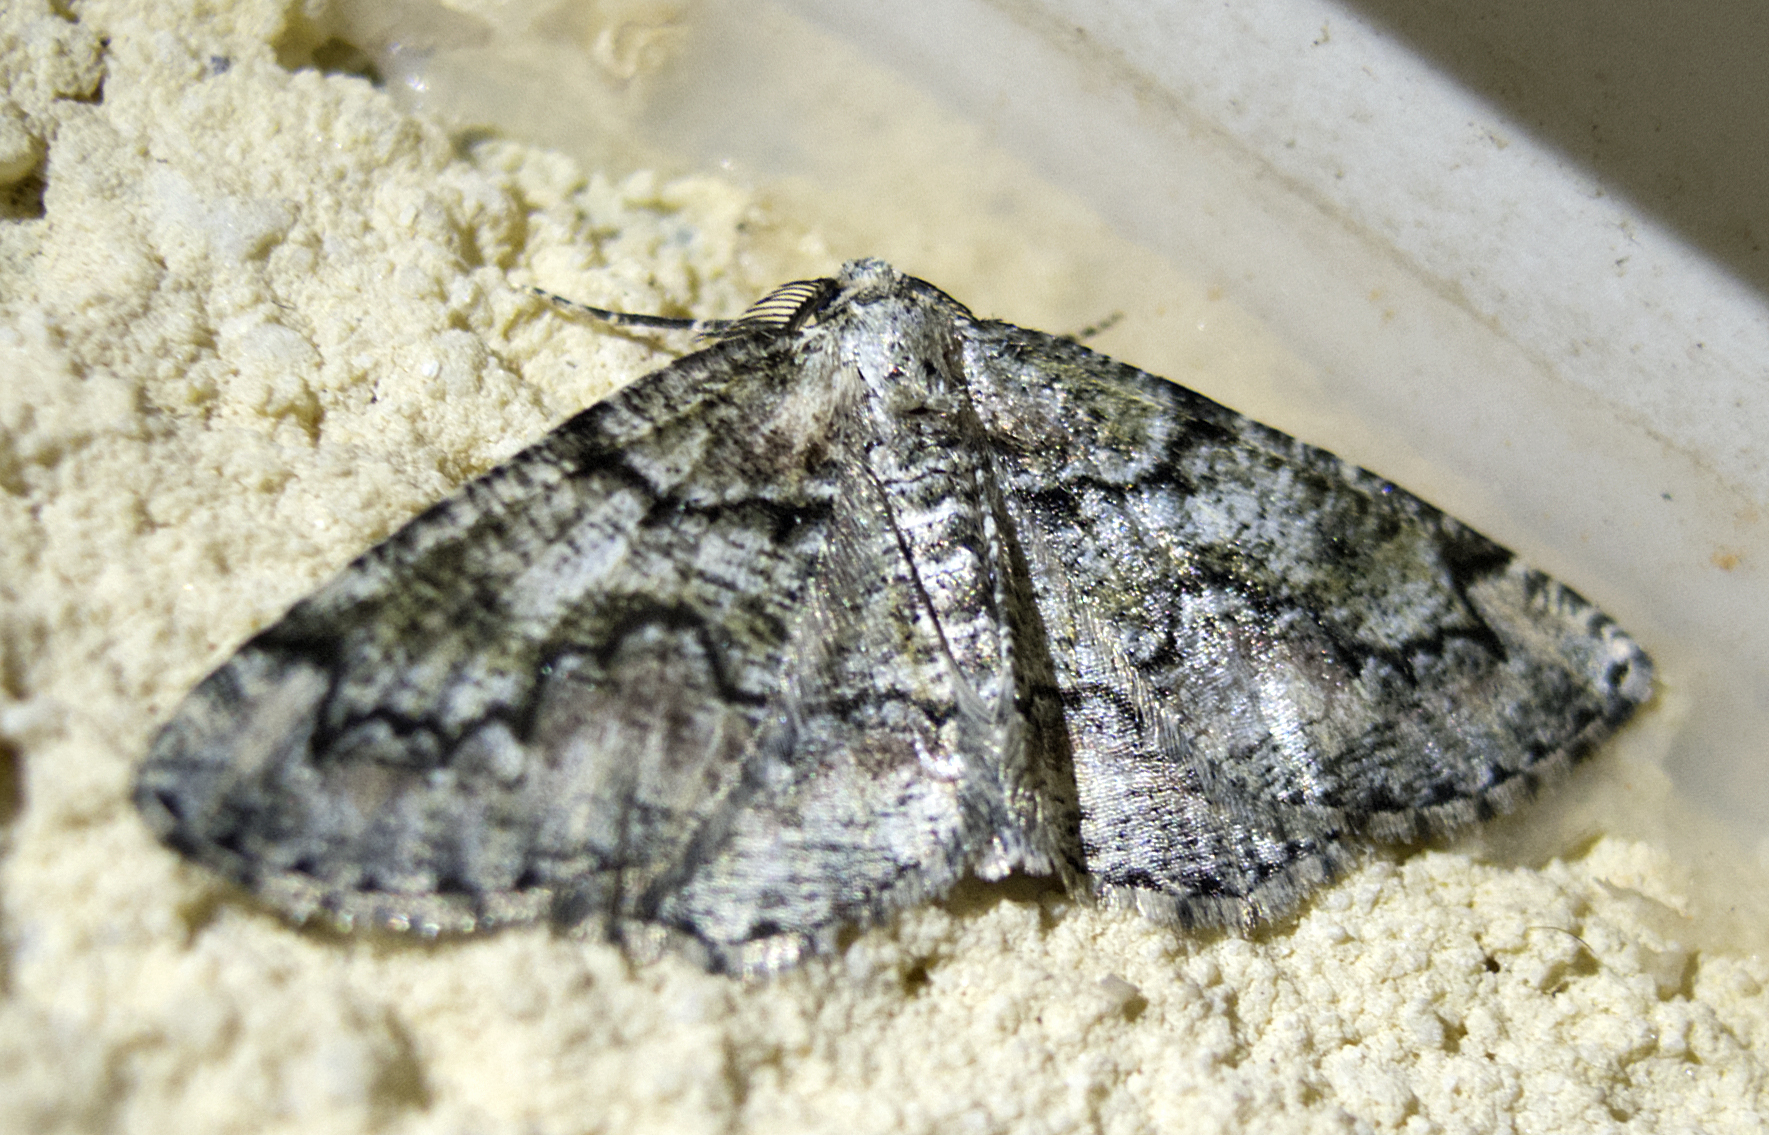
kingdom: Animalia
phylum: Arthropoda
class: Insecta
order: Lepidoptera
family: Geometridae
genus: Cleorodes
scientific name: Cleorodes lichenaria
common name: Brussels lace
